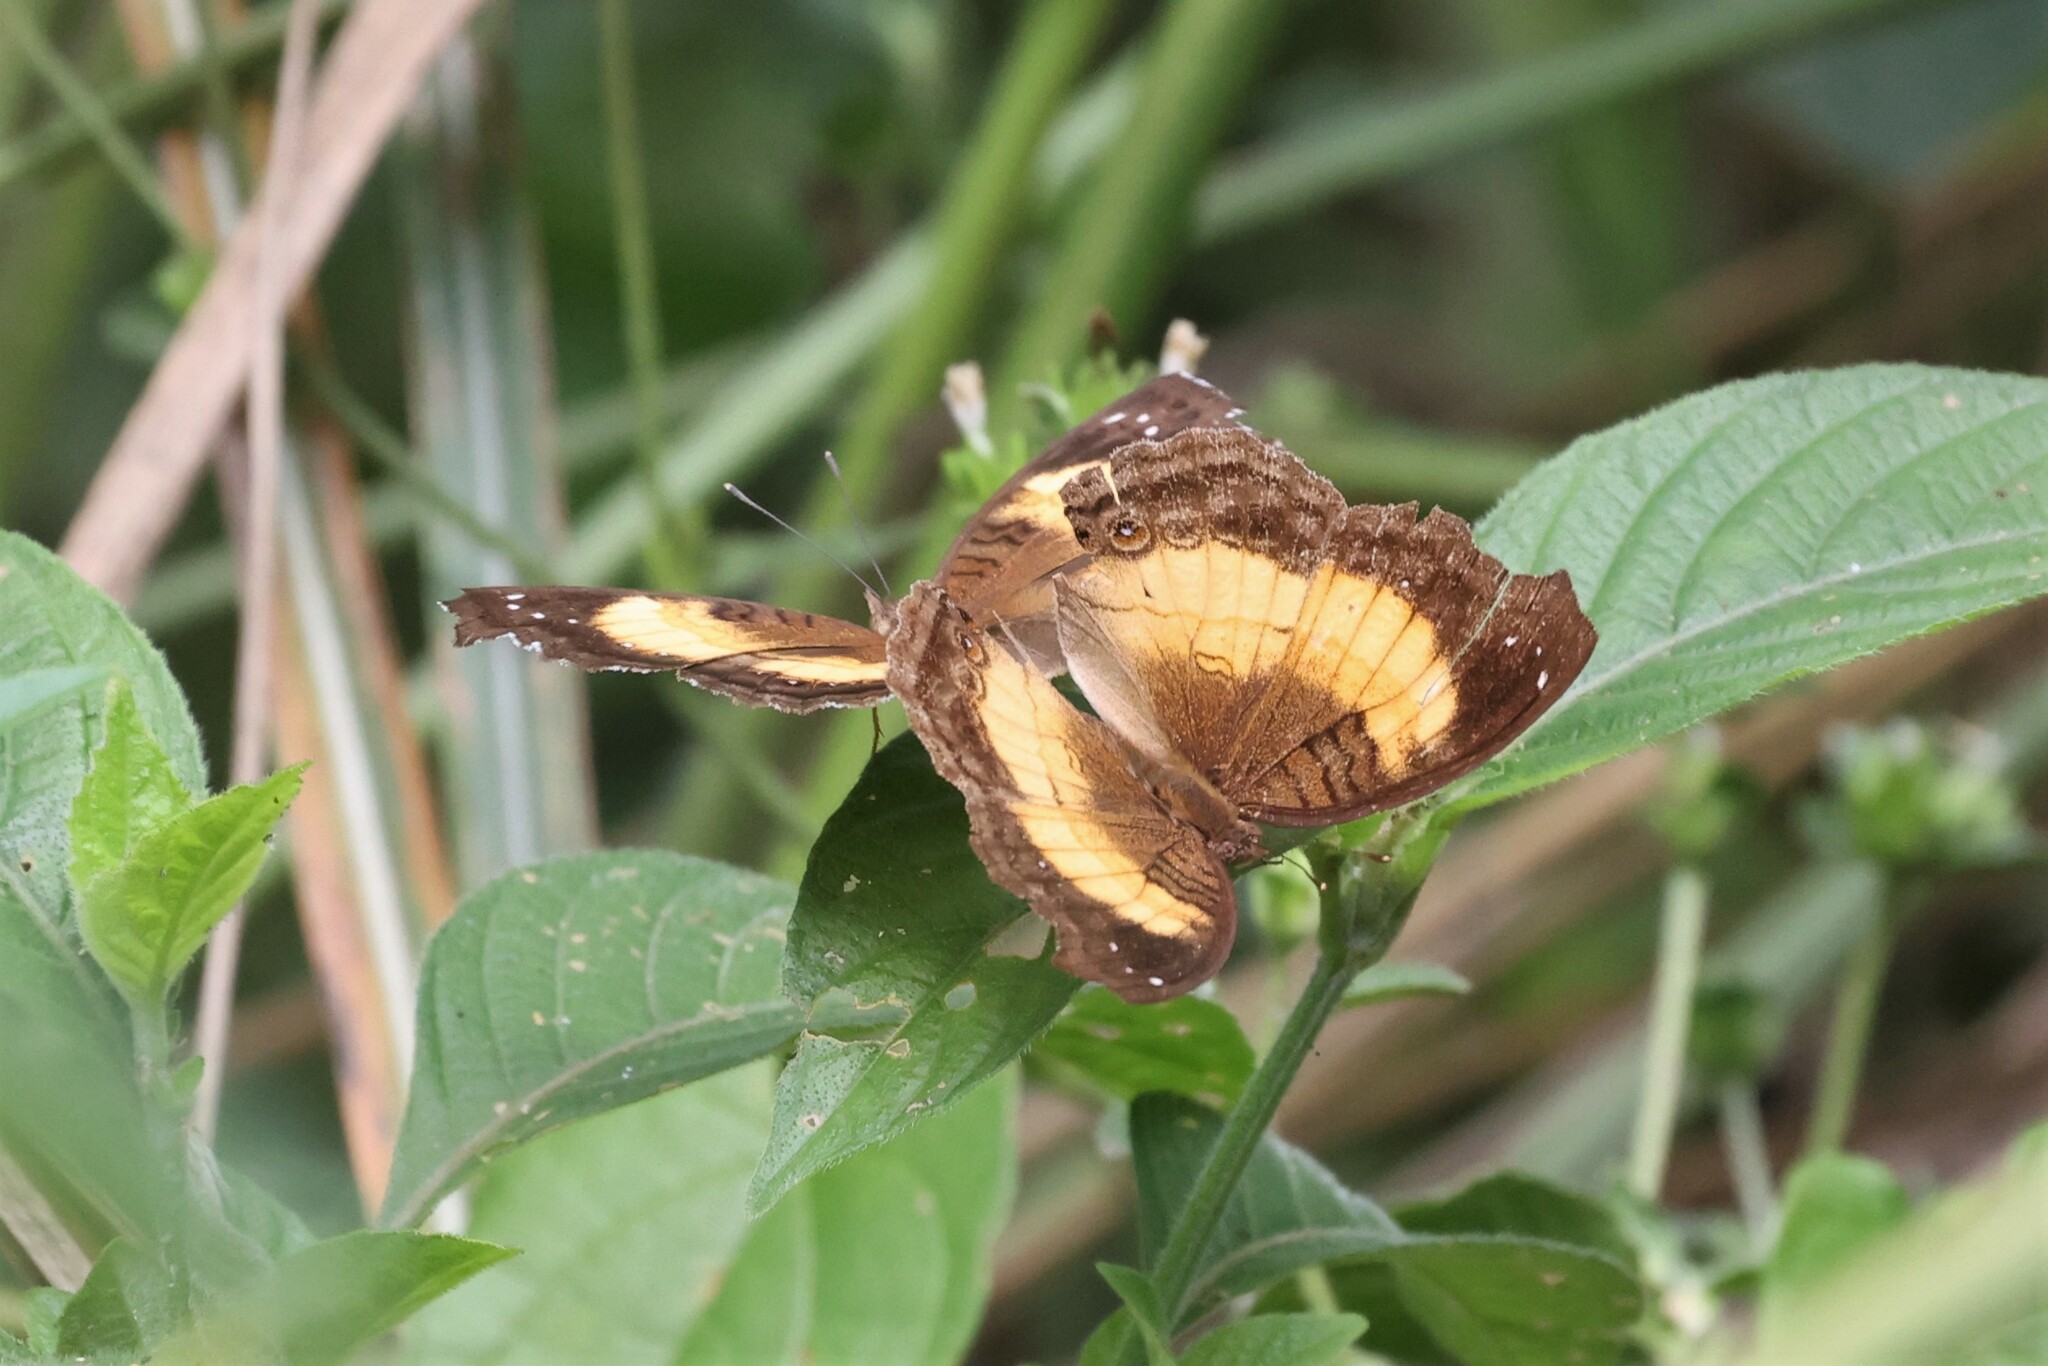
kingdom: Animalia
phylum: Arthropoda
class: Insecta
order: Lepidoptera
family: Nymphalidae
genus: Junonia
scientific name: Junonia terea
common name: Soldier pansy
